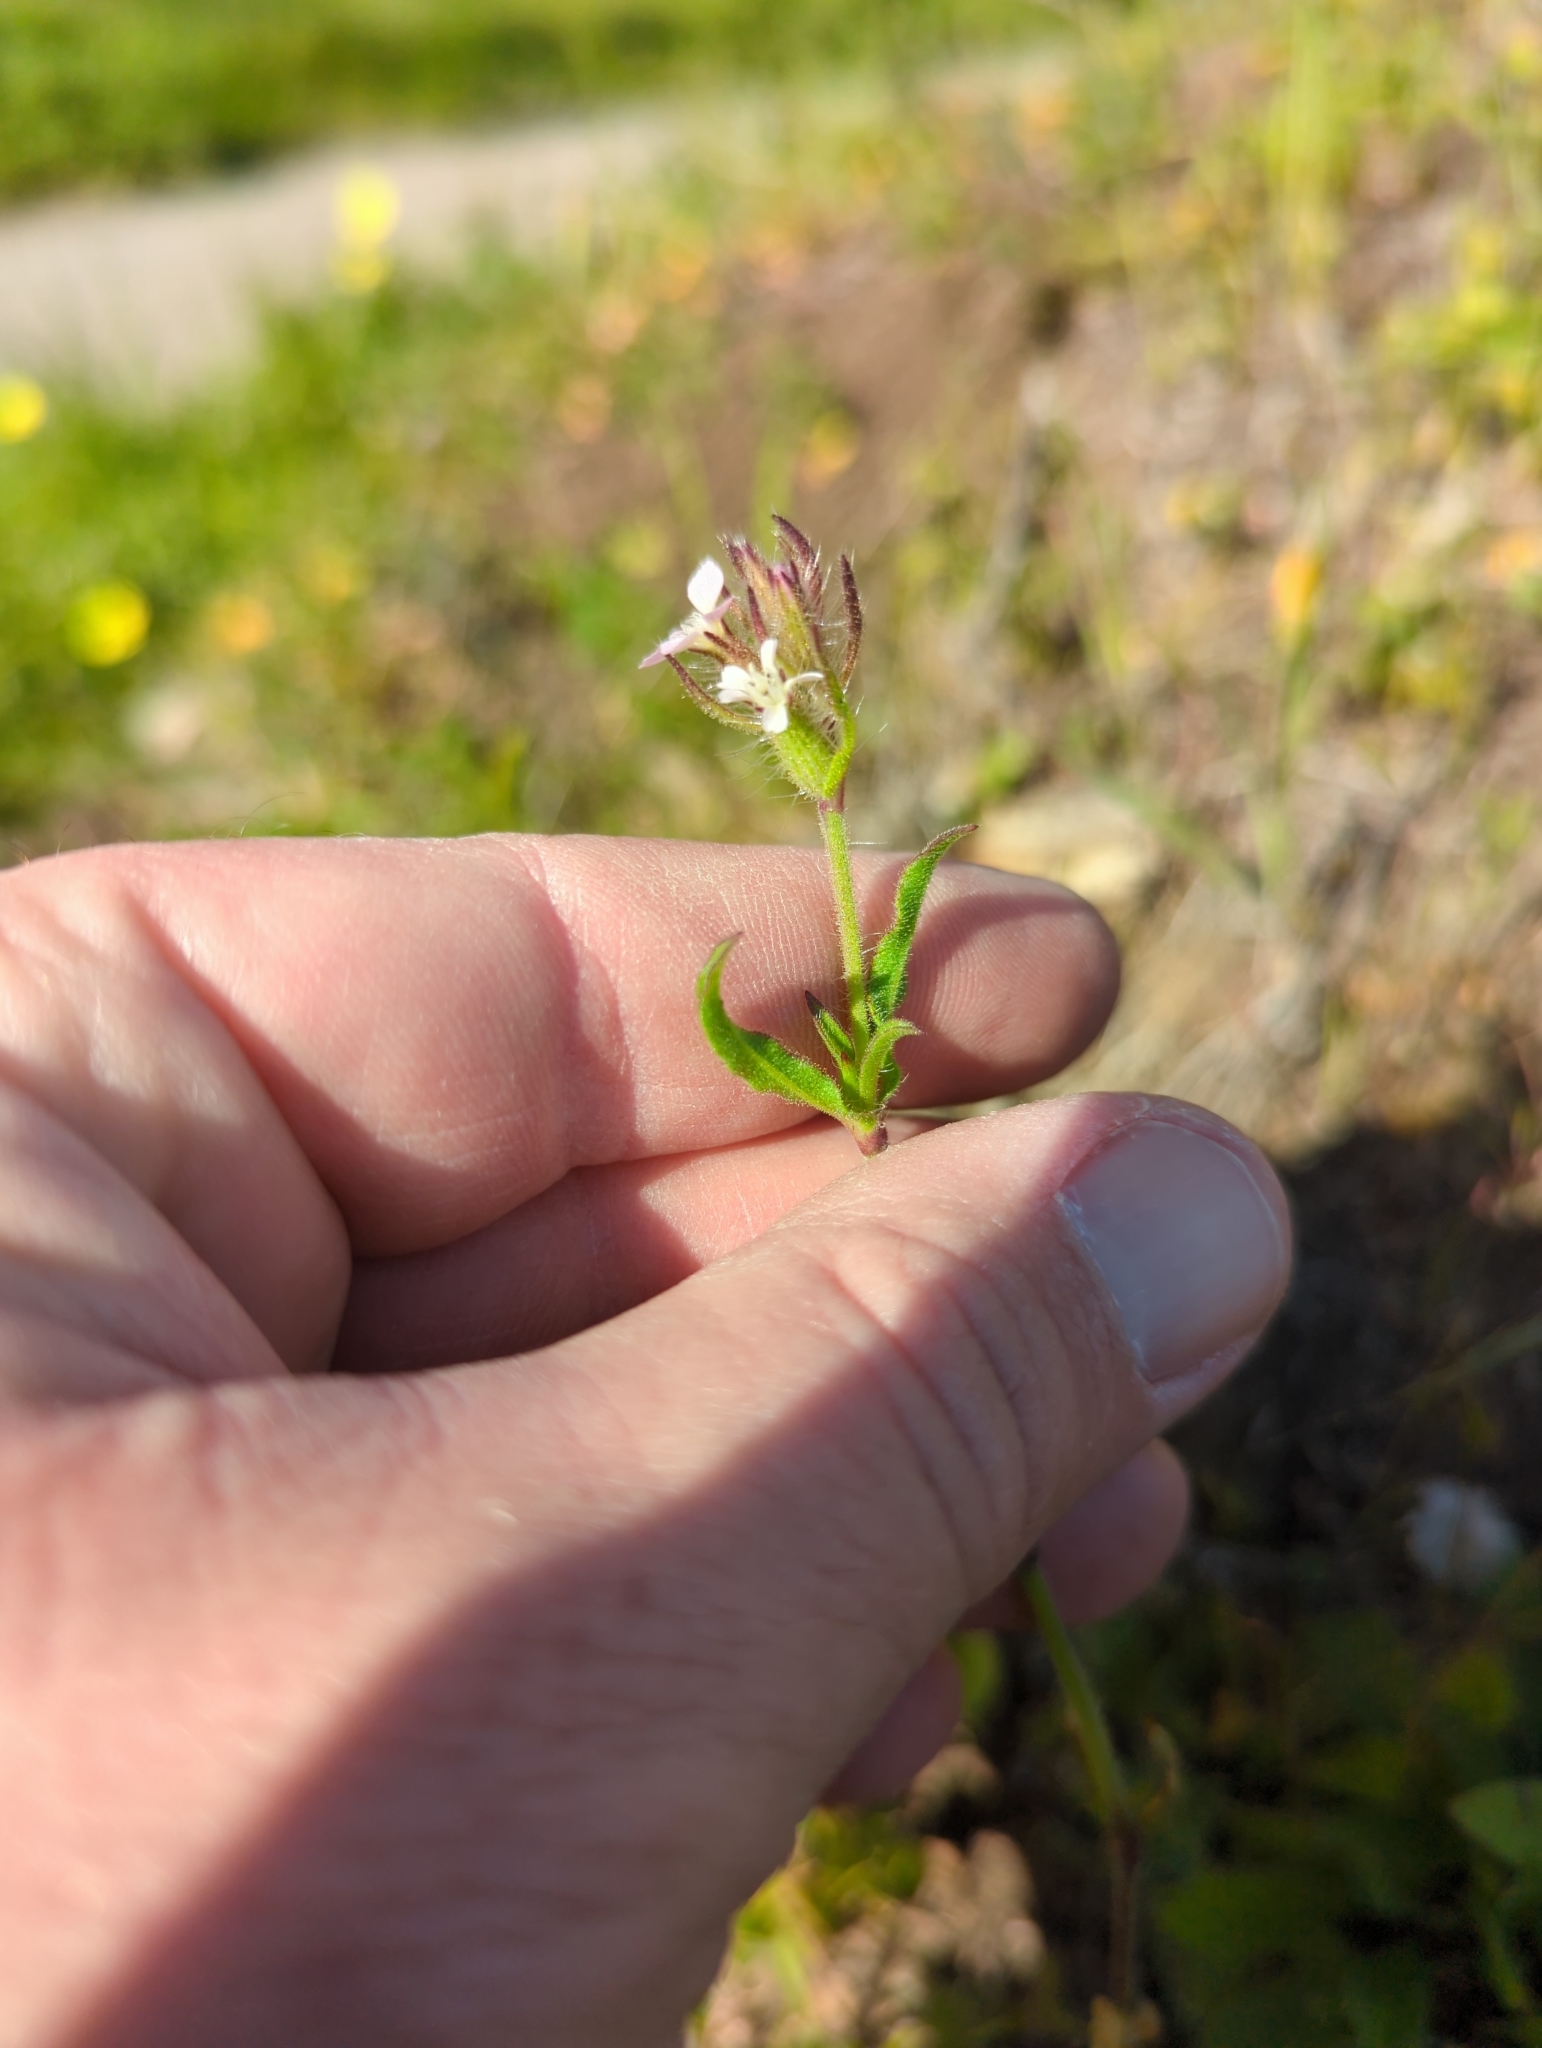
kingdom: Plantae
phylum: Tracheophyta
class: Magnoliopsida
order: Caryophyllales
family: Caryophyllaceae
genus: Silene
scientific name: Silene gallica
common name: Small-flowered catchfly
